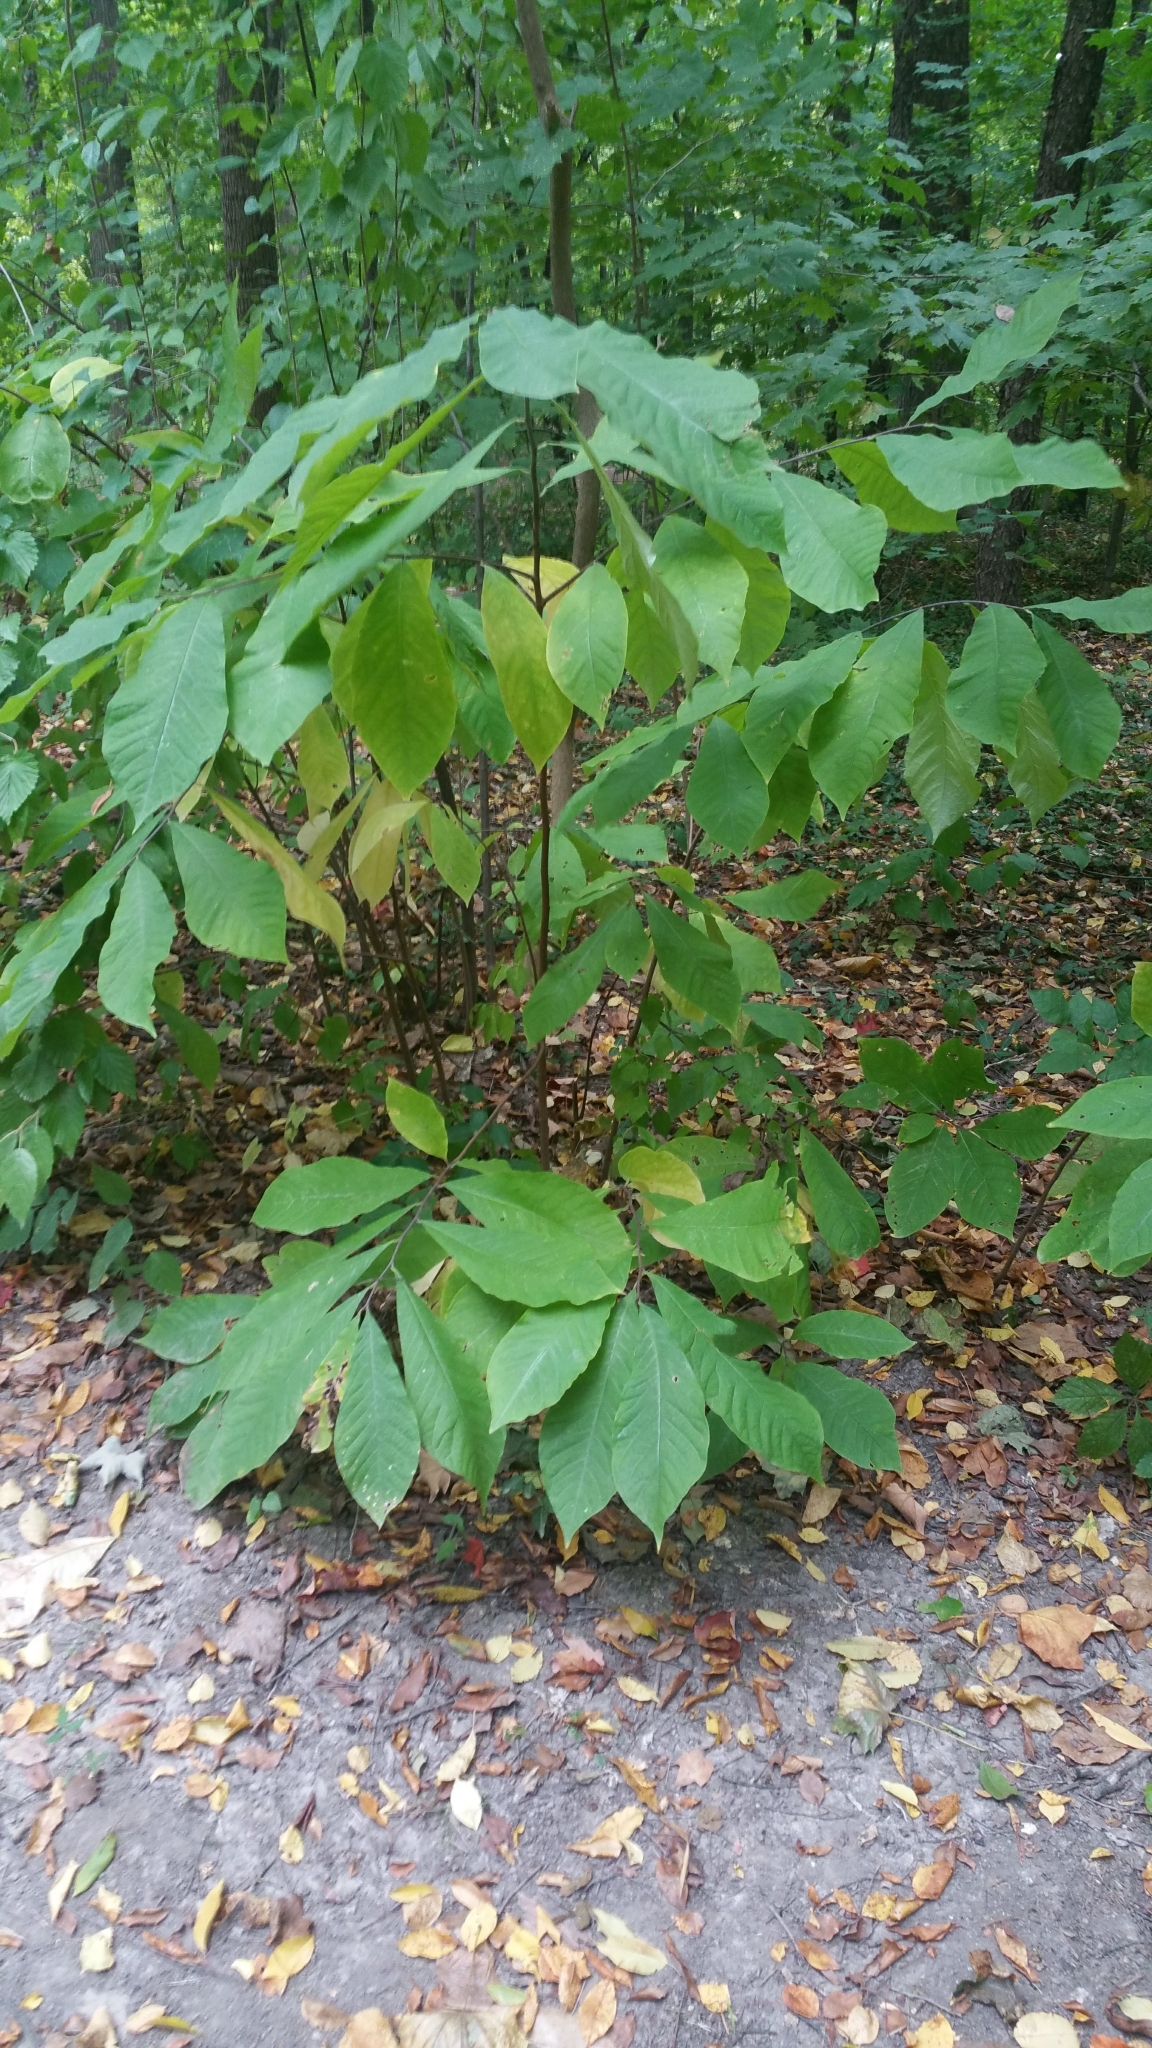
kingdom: Plantae
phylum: Tracheophyta
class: Magnoliopsida
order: Magnoliales
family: Annonaceae
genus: Asimina
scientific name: Asimina triloba
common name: Dog-banana
